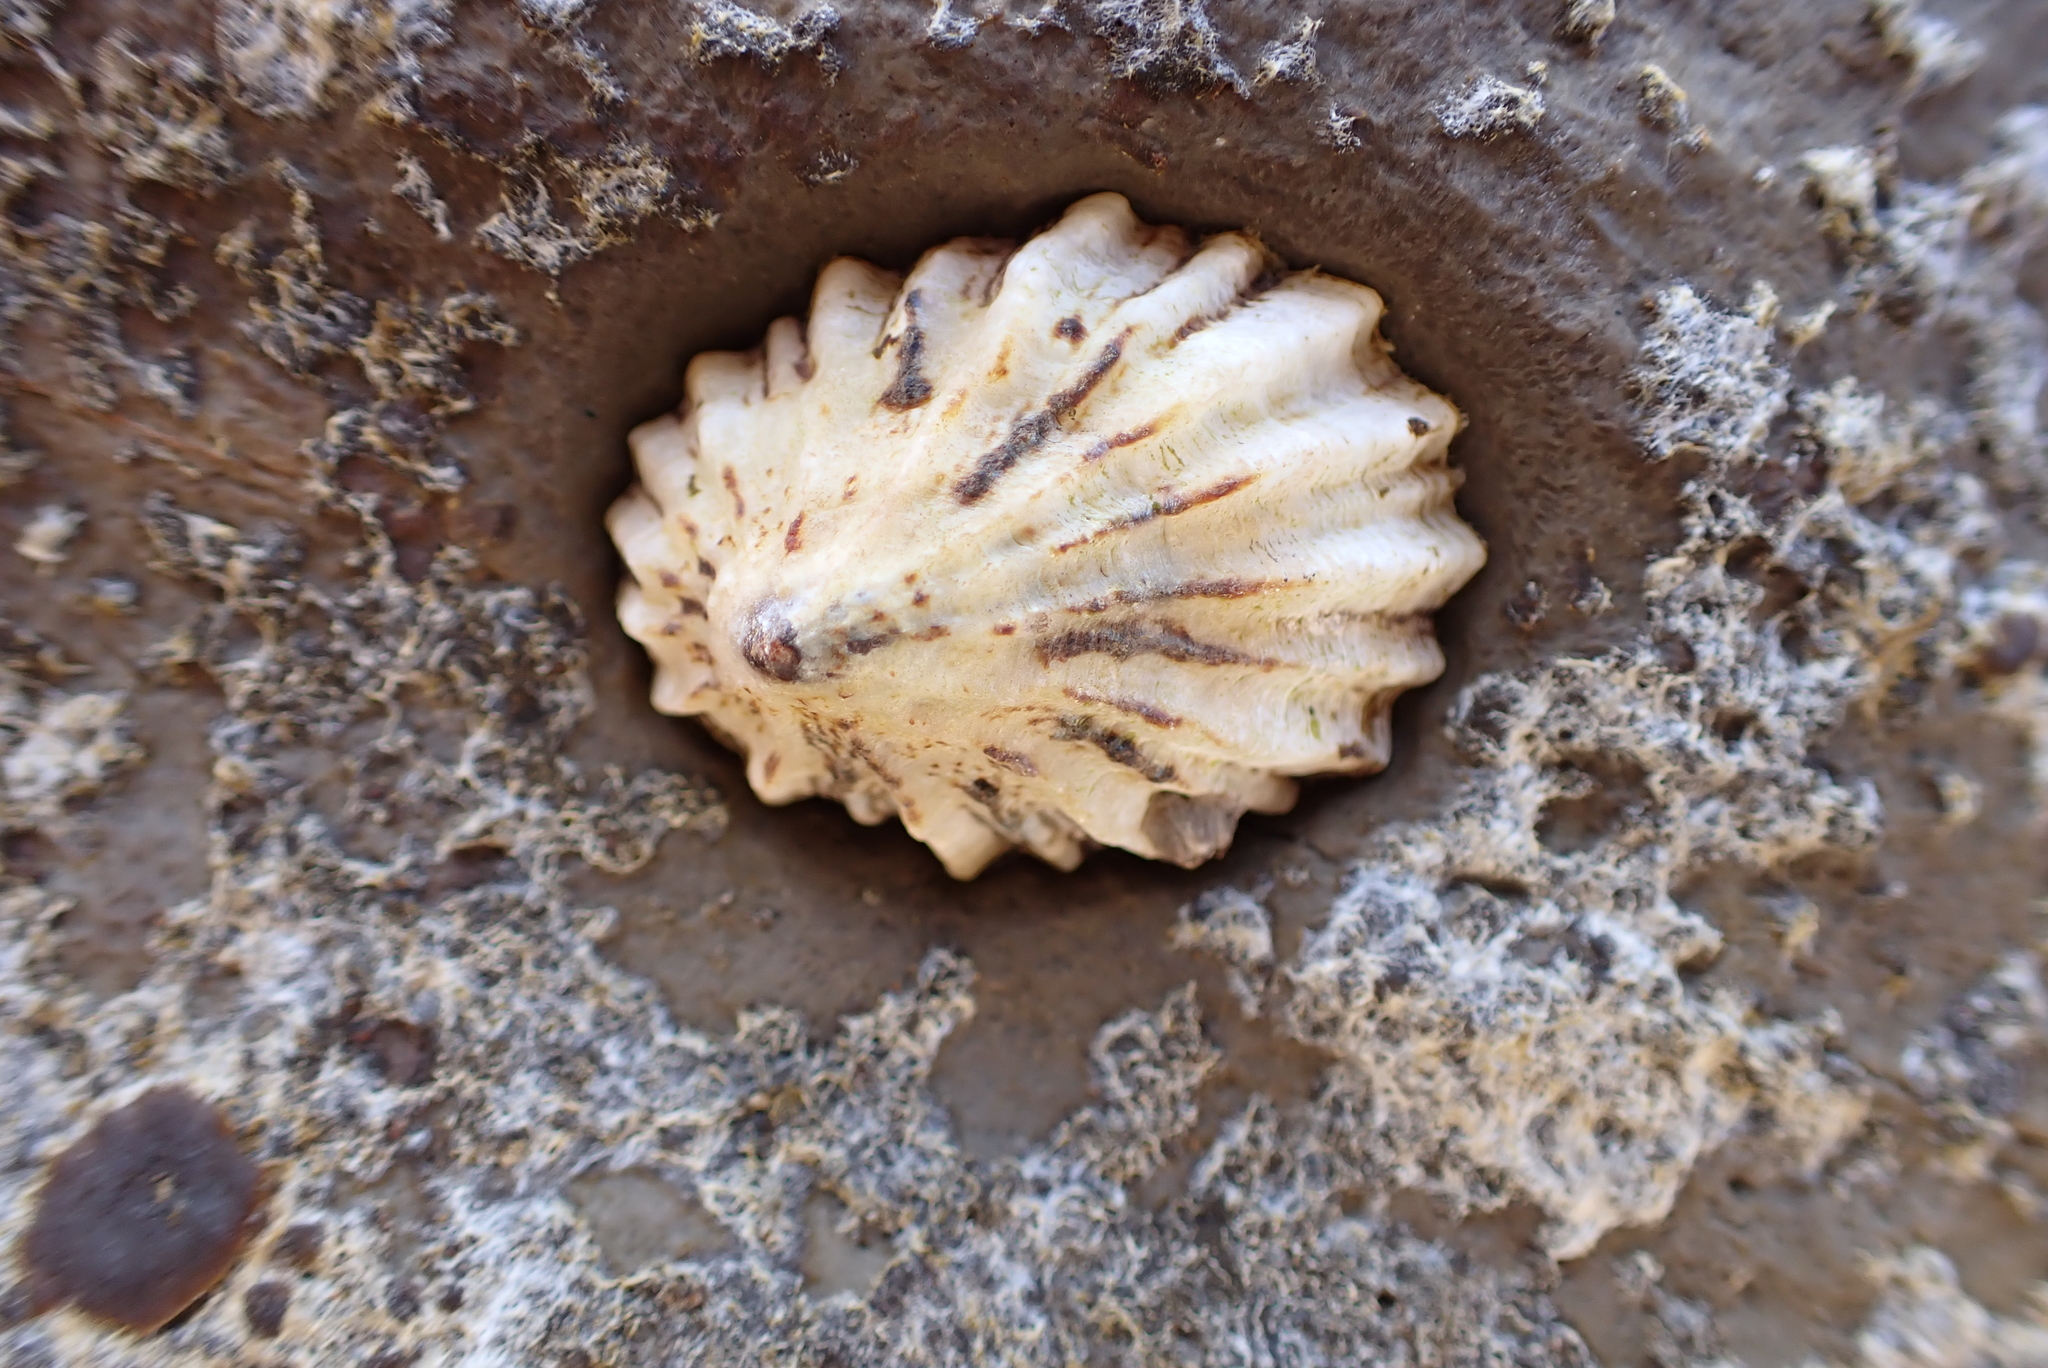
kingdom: Animalia
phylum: Mollusca
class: Gastropoda
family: Lottiidae
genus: Lottia
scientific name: Lottia scabra
